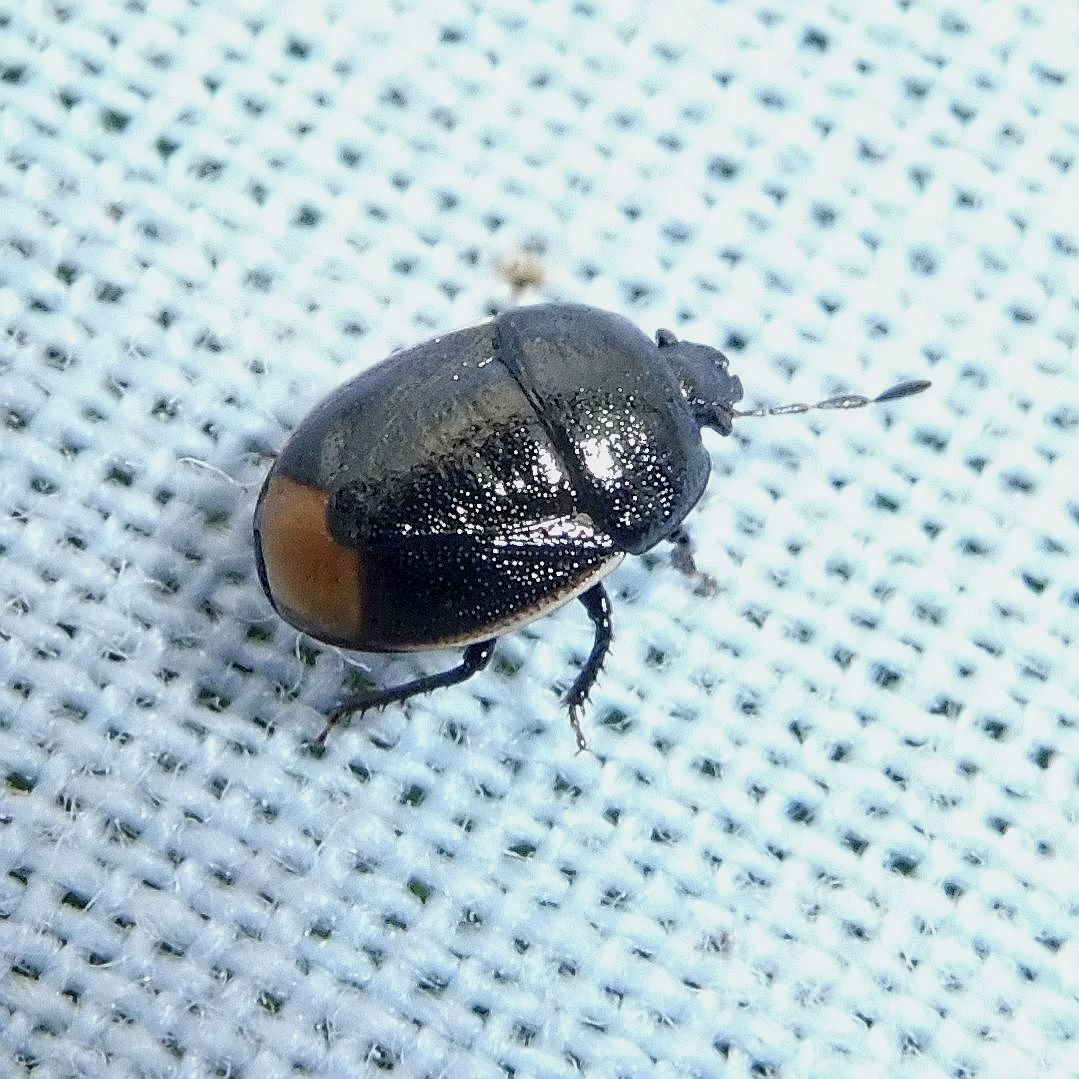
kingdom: Animalia
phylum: Arthropoda
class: Insecta
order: Hemiptera
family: Cydnidae
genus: Legnotus
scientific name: Legnotus limbosus
